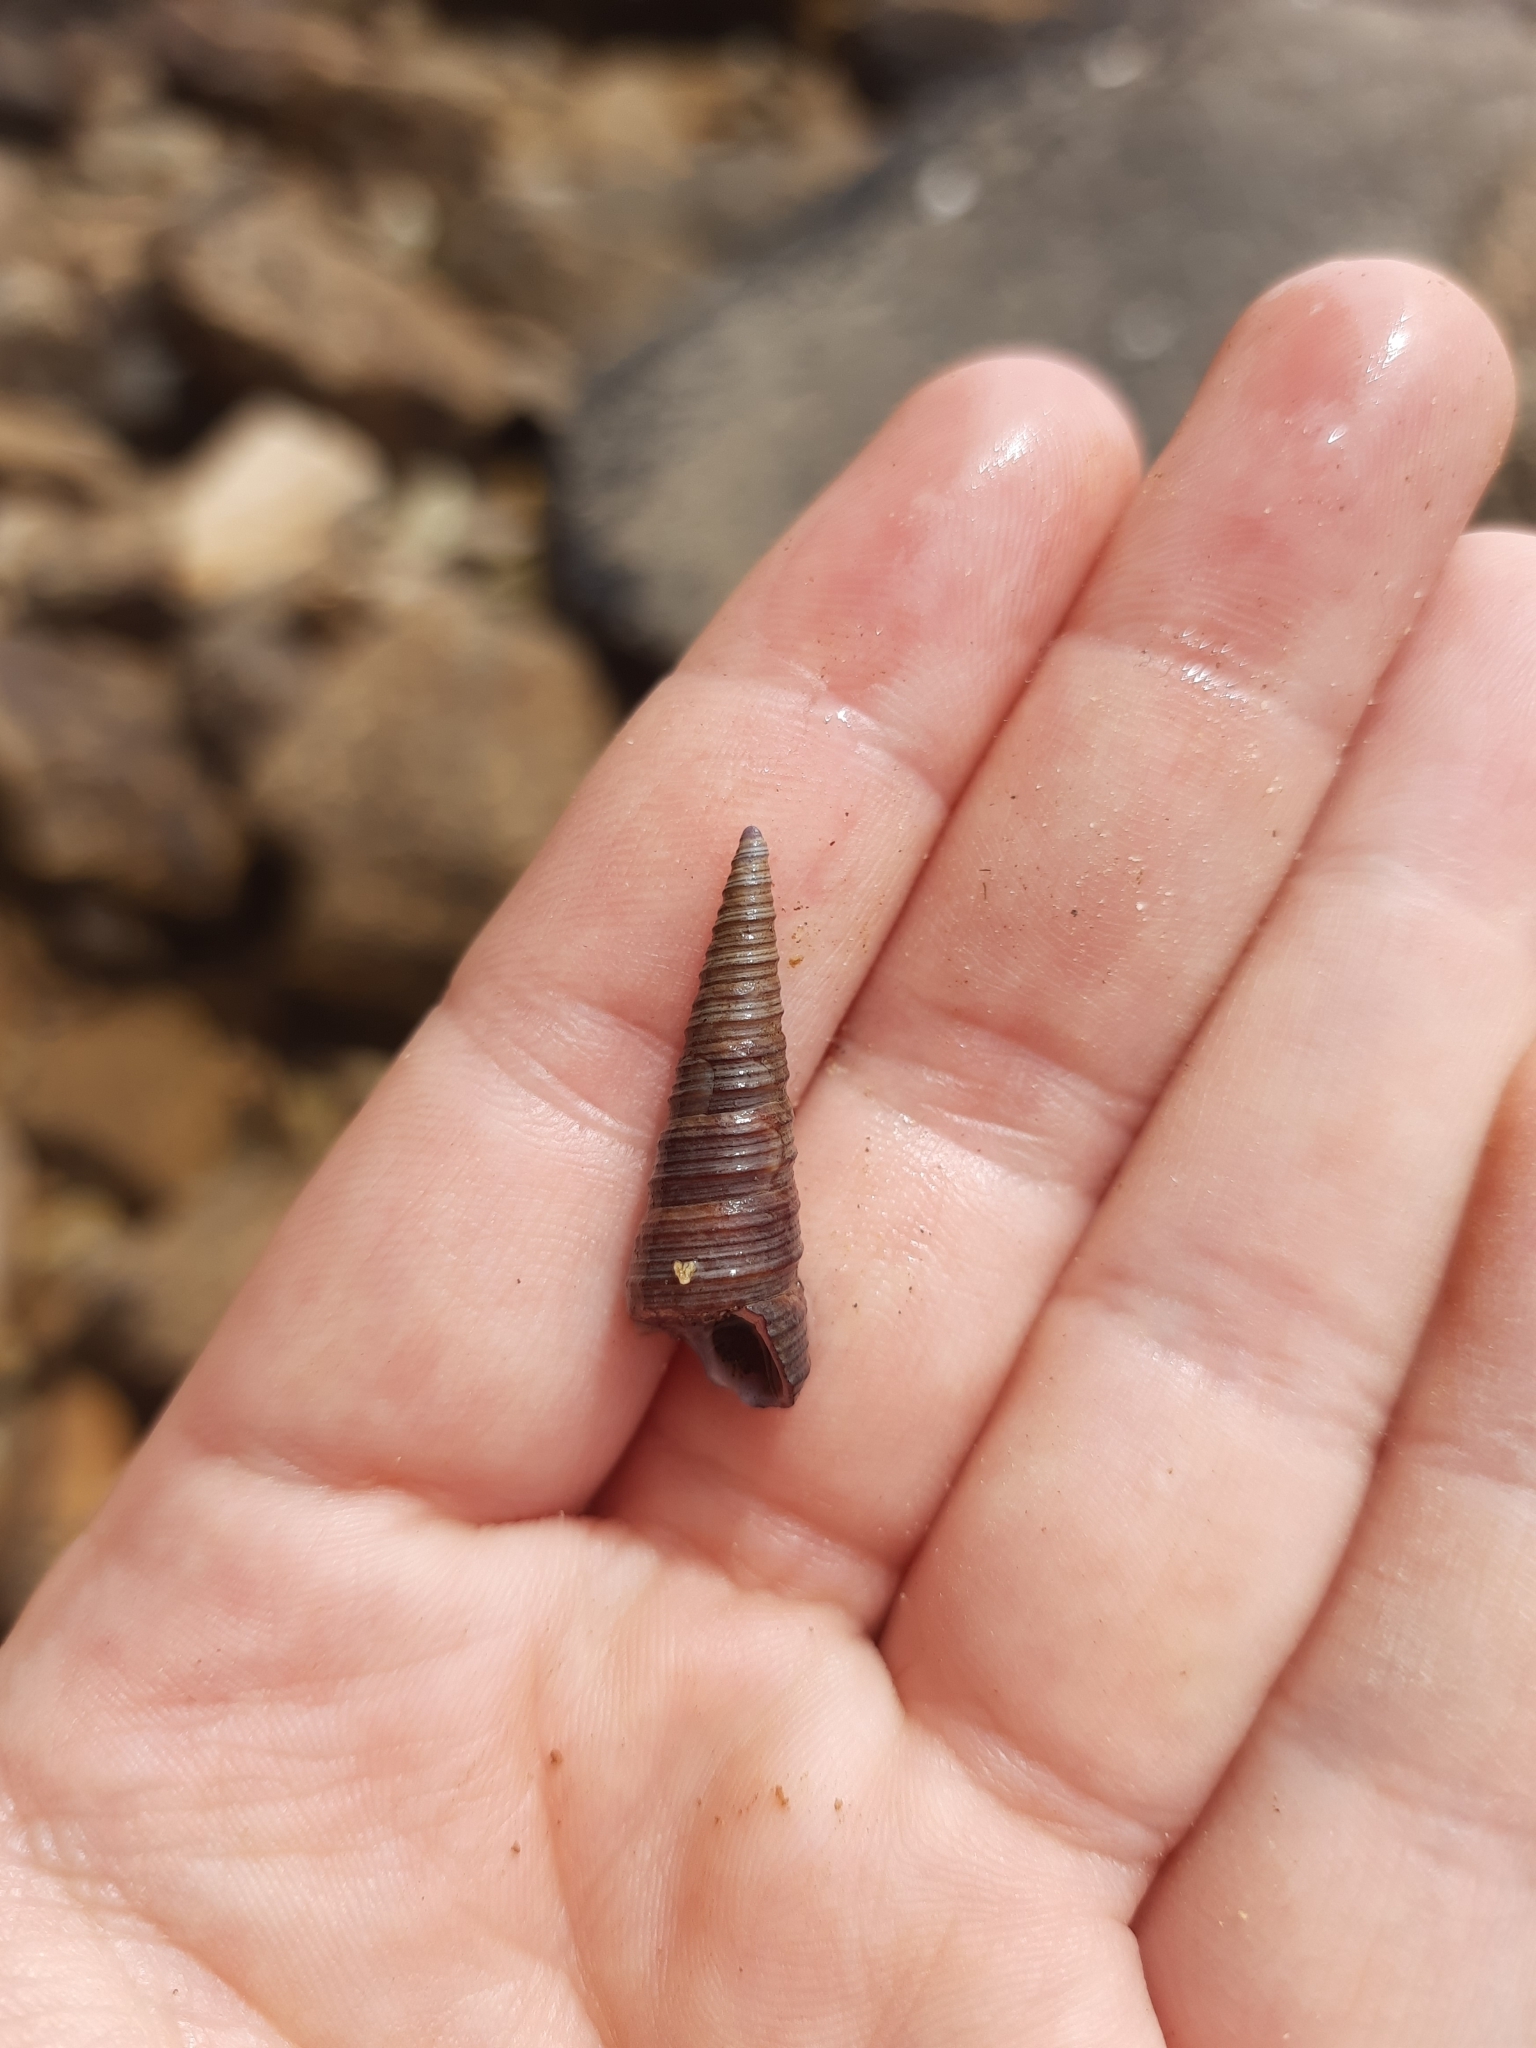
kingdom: Animalia
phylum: Mollusca
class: Gastropoda
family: Turritellidae
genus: Maoricolpus
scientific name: Maoricolpus roseus
